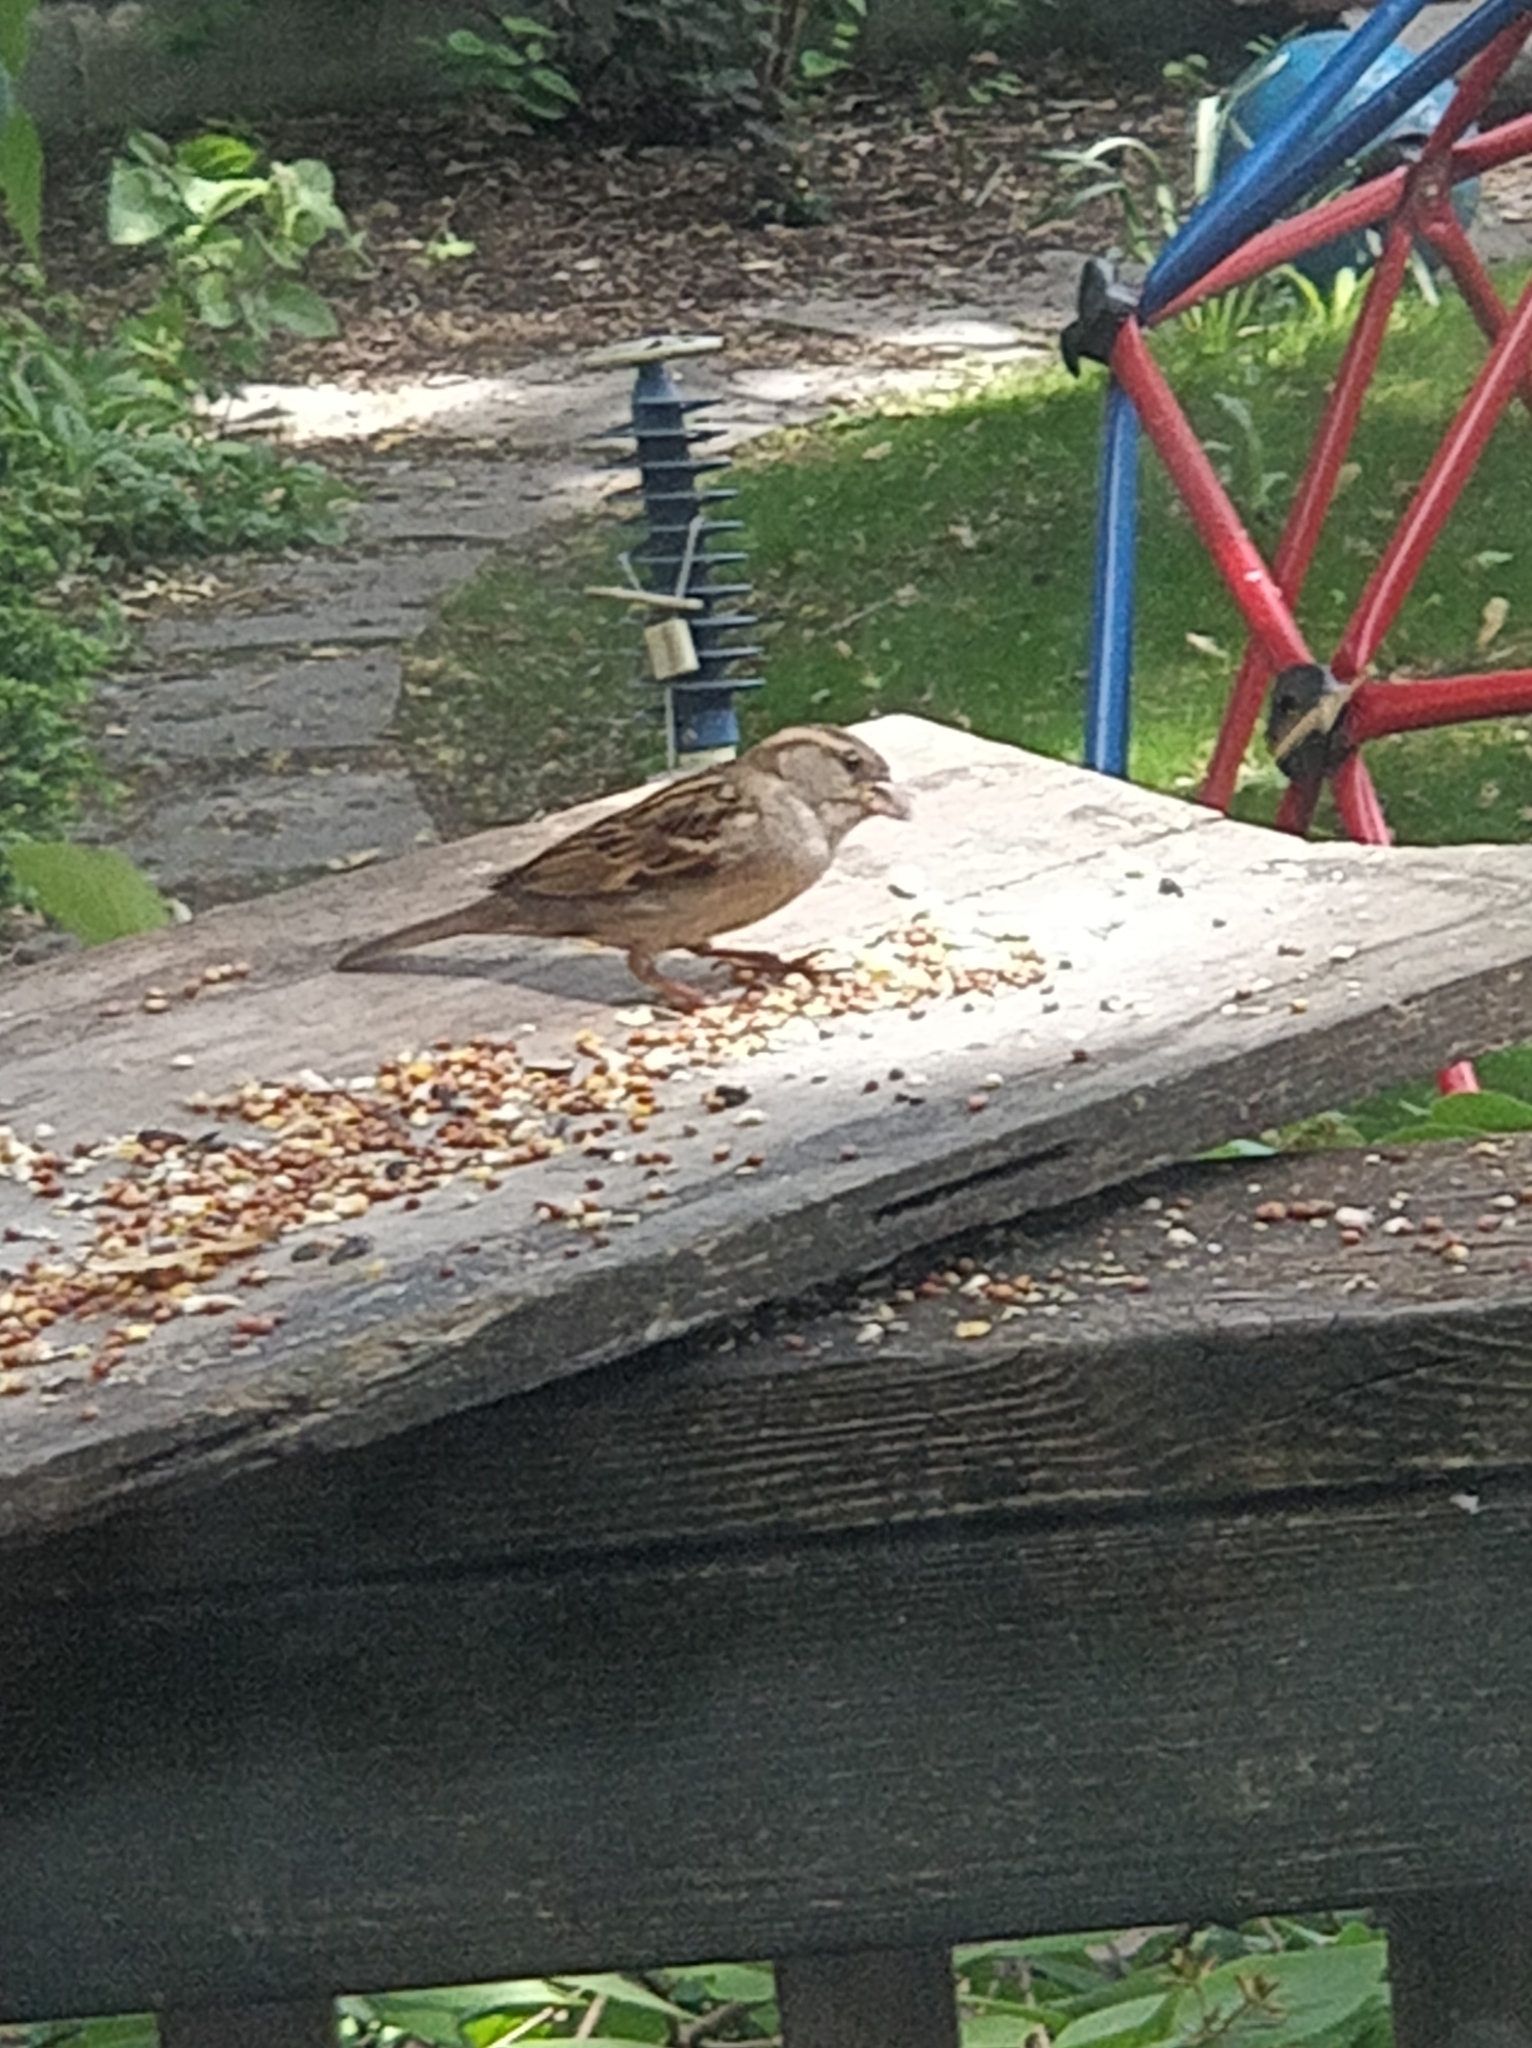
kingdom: Animalia
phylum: Chordata
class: Aves
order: Passeriformes
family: Passeridae
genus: Passer
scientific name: Passer domesticus
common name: House sparrow
